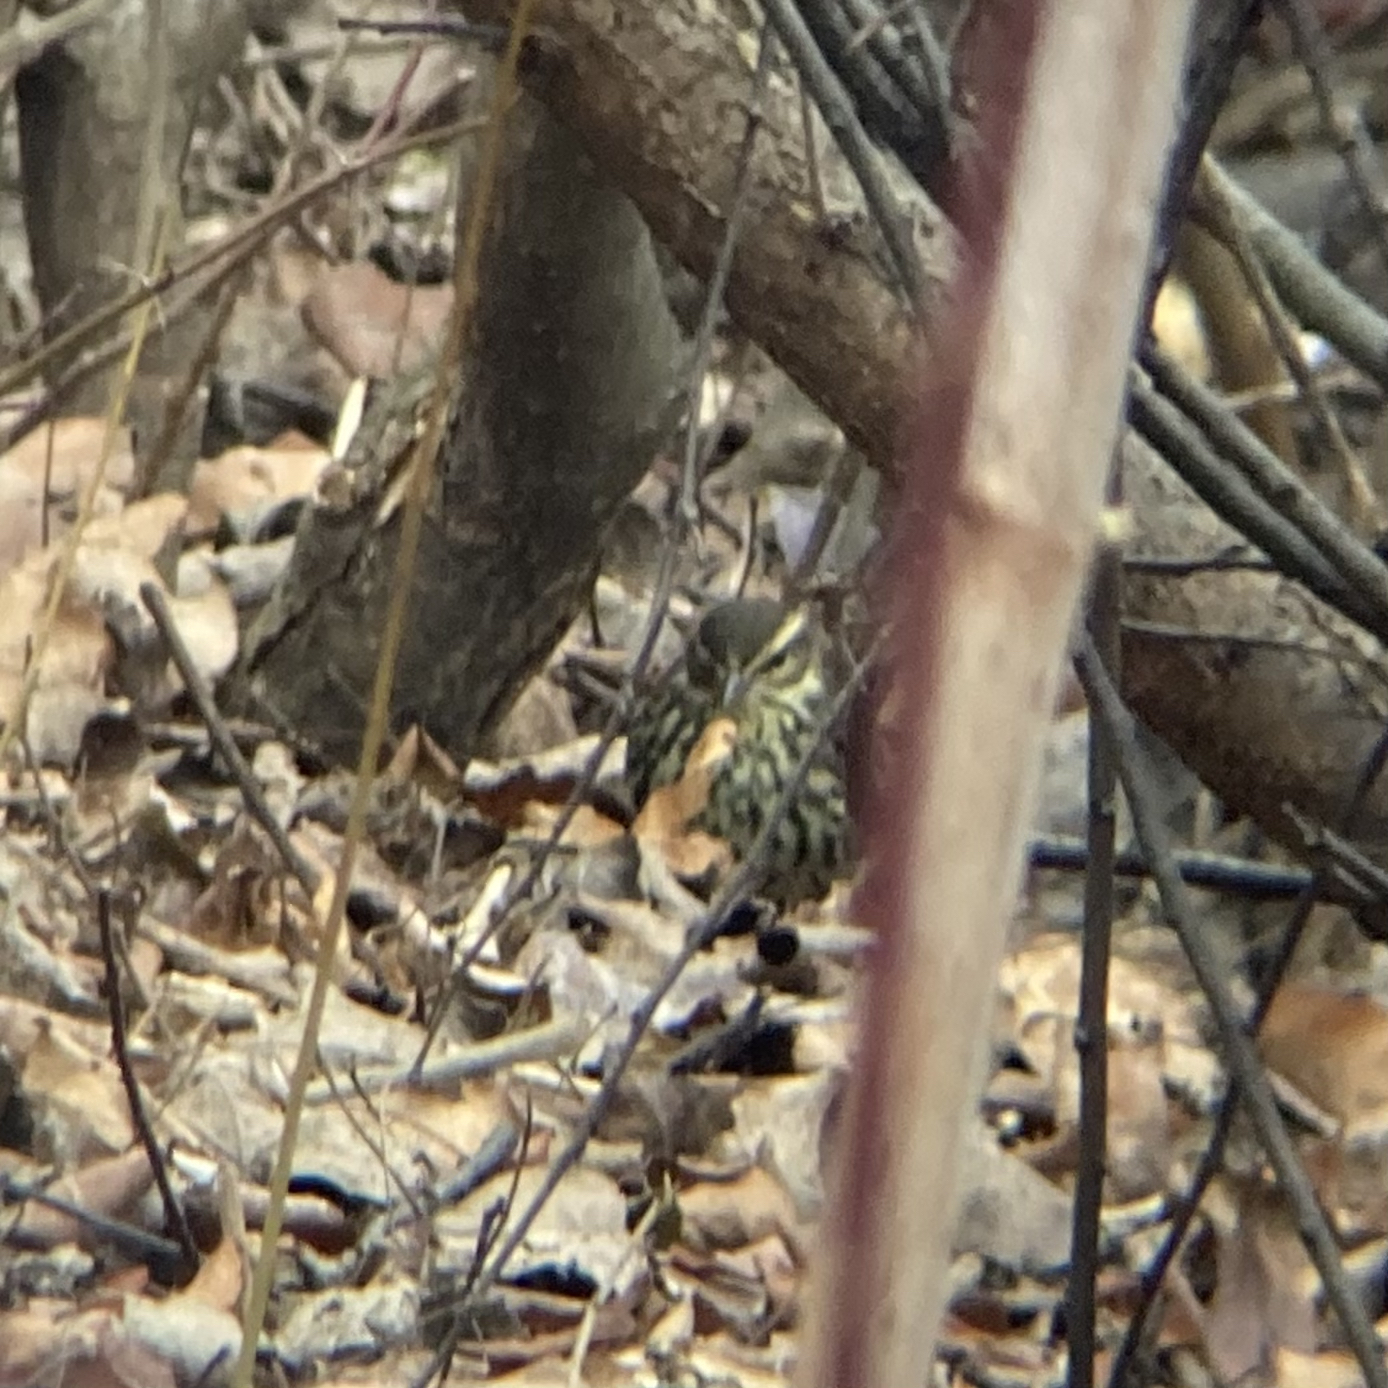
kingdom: Animalia
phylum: Chordata
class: Aves
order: Passeriformes
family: Parulidae
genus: Parkesia
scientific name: Parkesia noveboracensis
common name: Northern waterthrush
